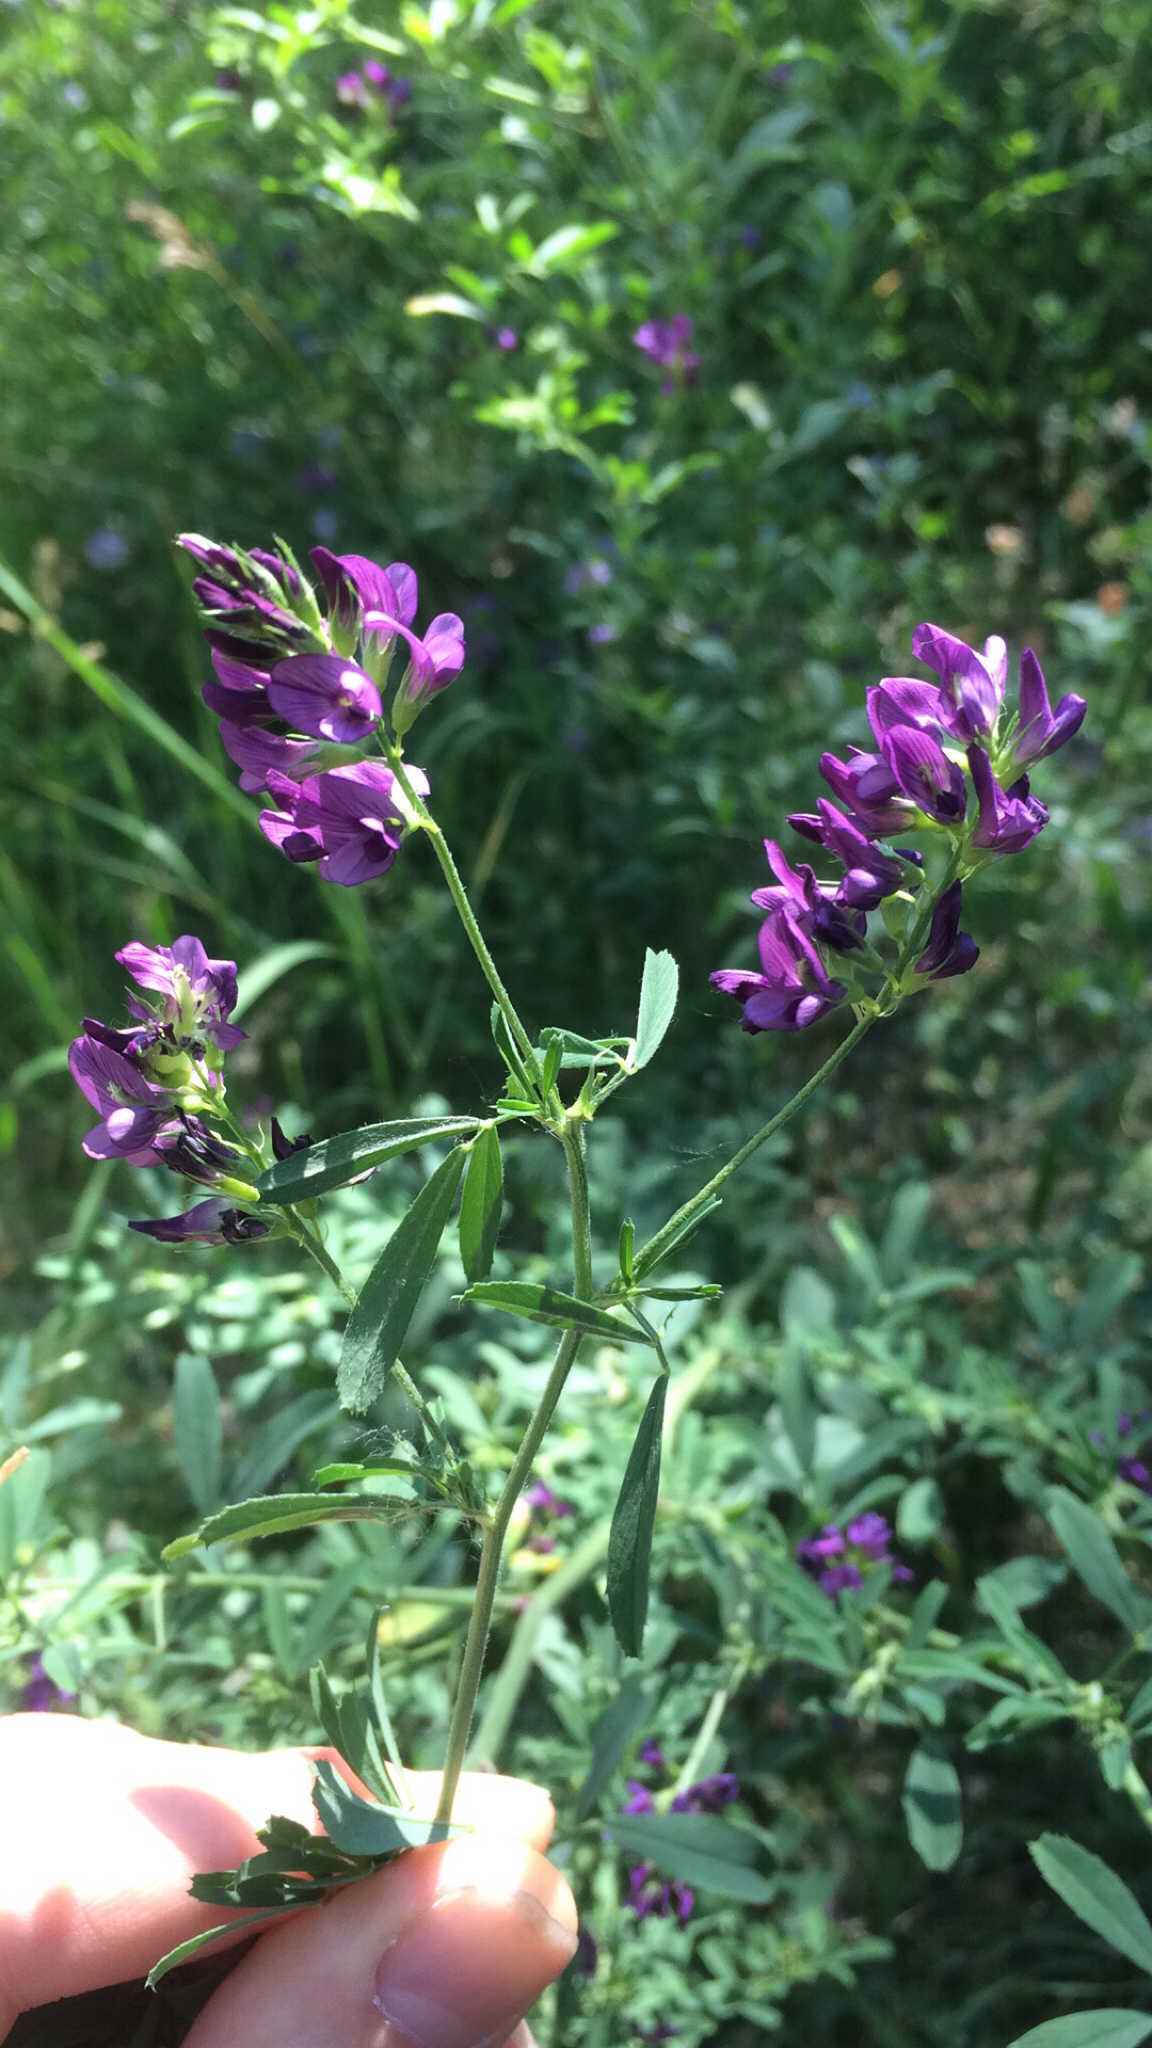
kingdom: Plantae
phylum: Tracheophyta
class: Magnoliopsida
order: Fabales
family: Fabaceae
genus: Medicago
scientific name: Medicago sativa
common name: Alfalfa
